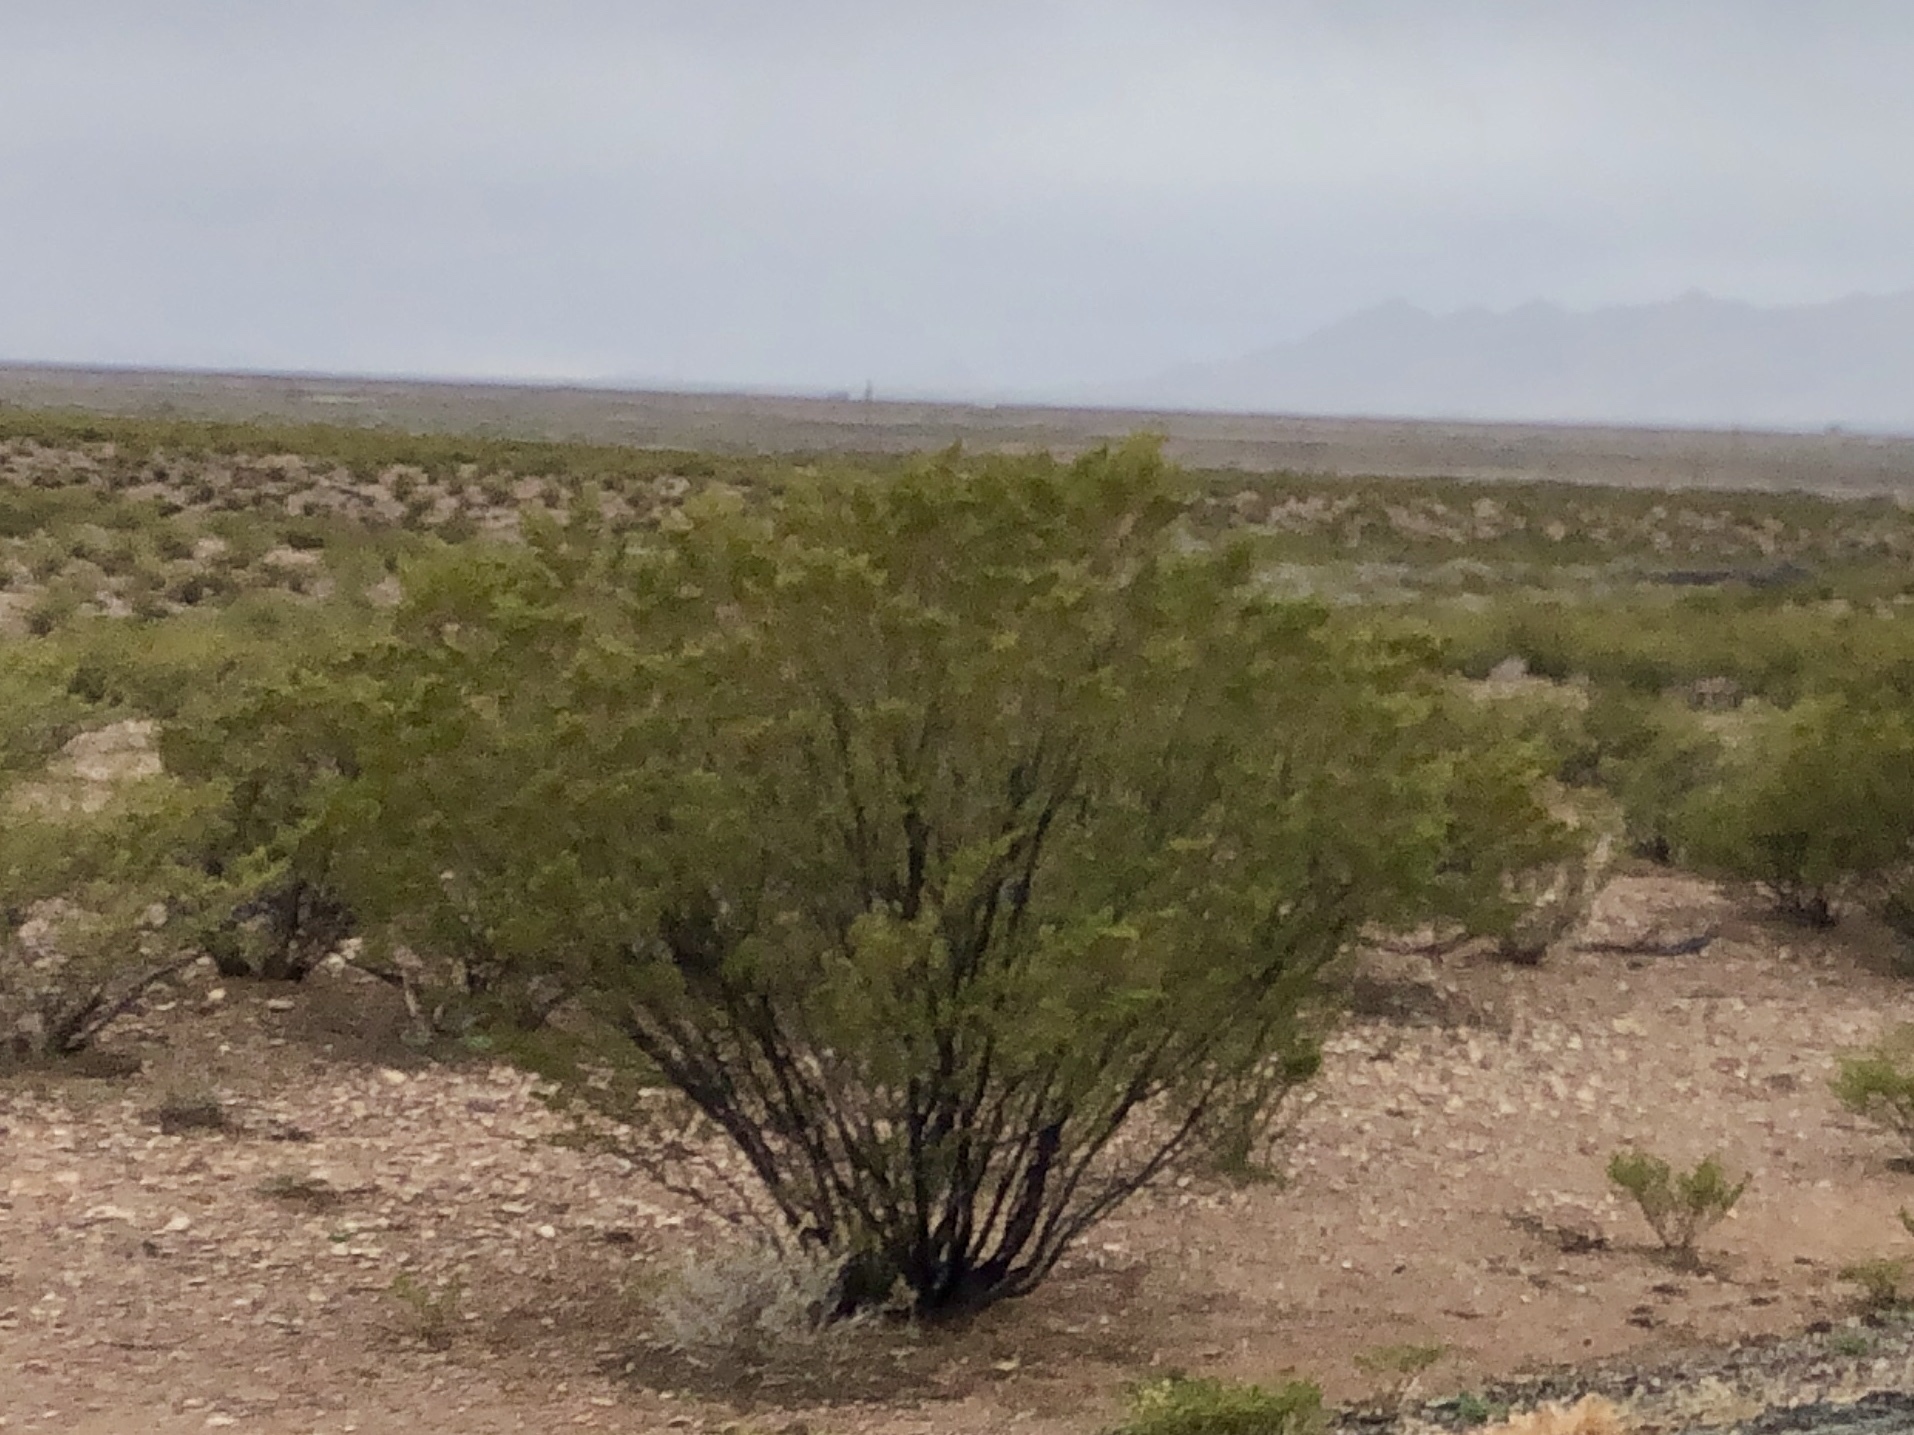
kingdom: Plantae
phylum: Tracheophyta
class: Magnoliopsida
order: Zygophyllales
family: Zygophyllaceae
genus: Larrea
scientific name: Larrea tridentata
